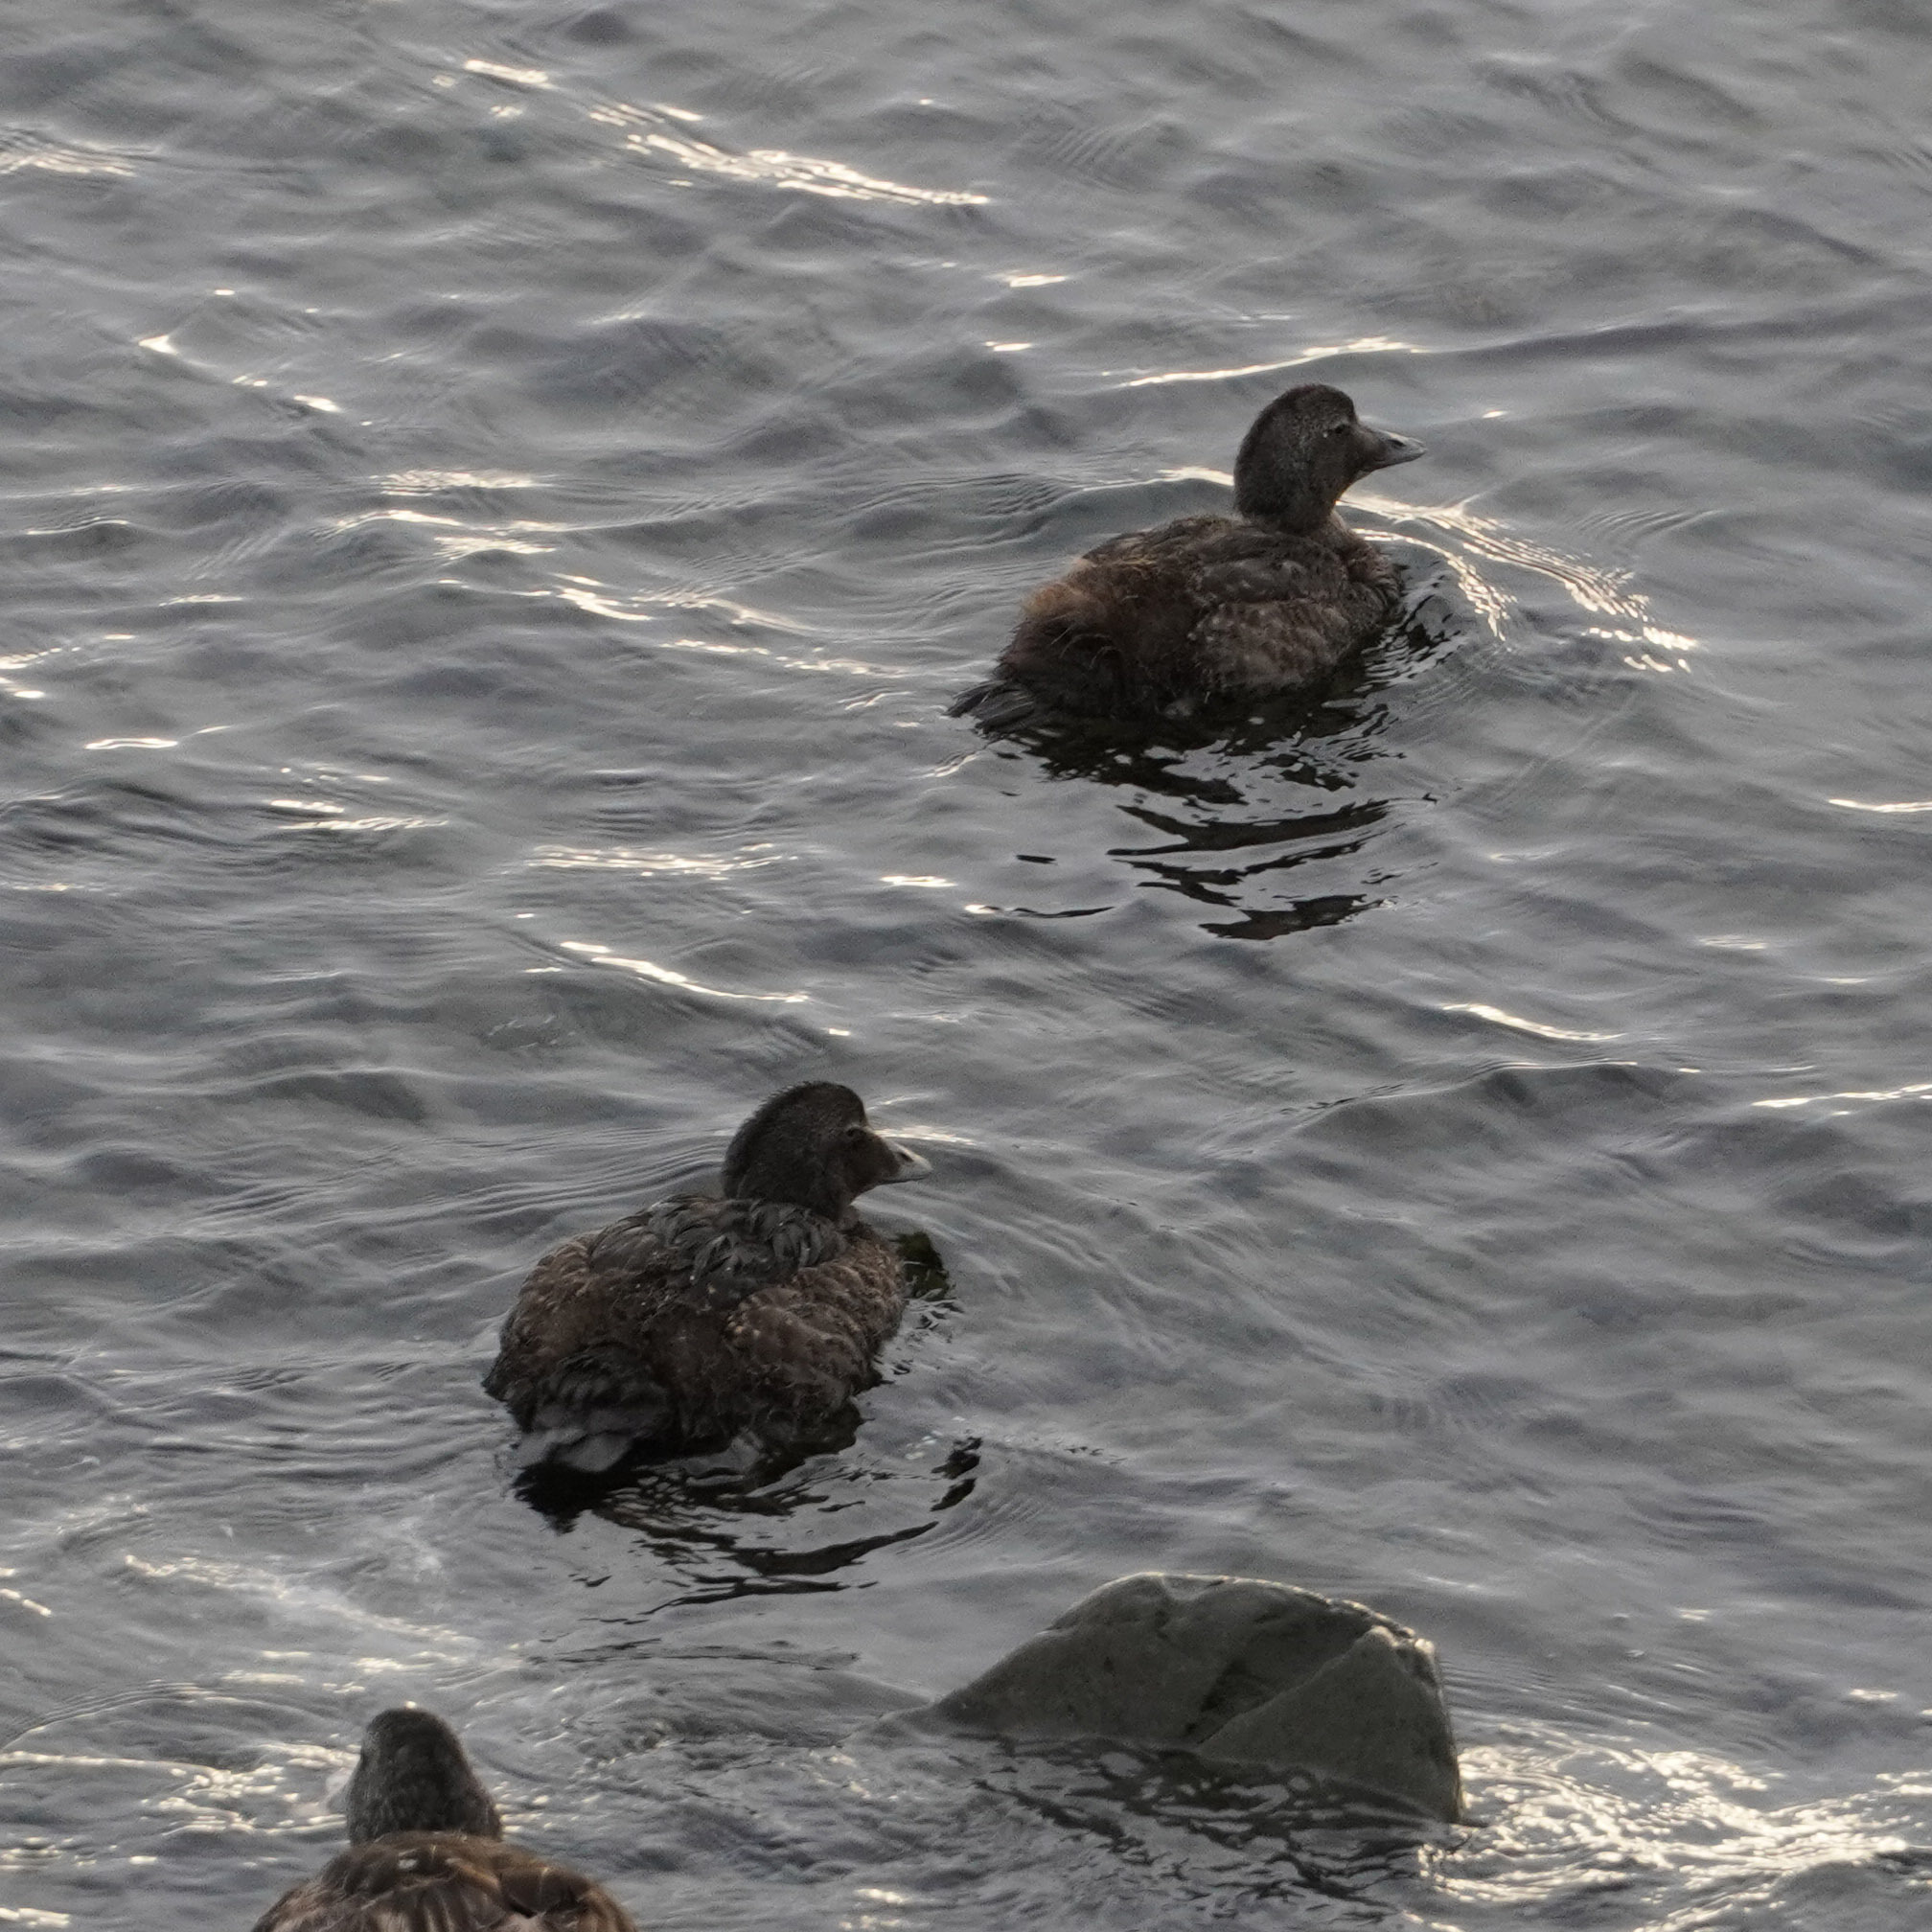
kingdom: Animalia
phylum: Chordata
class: Aves
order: Anseriformes
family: Anatidae
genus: Somateria
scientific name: Somateria mollissima
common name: Common eider
